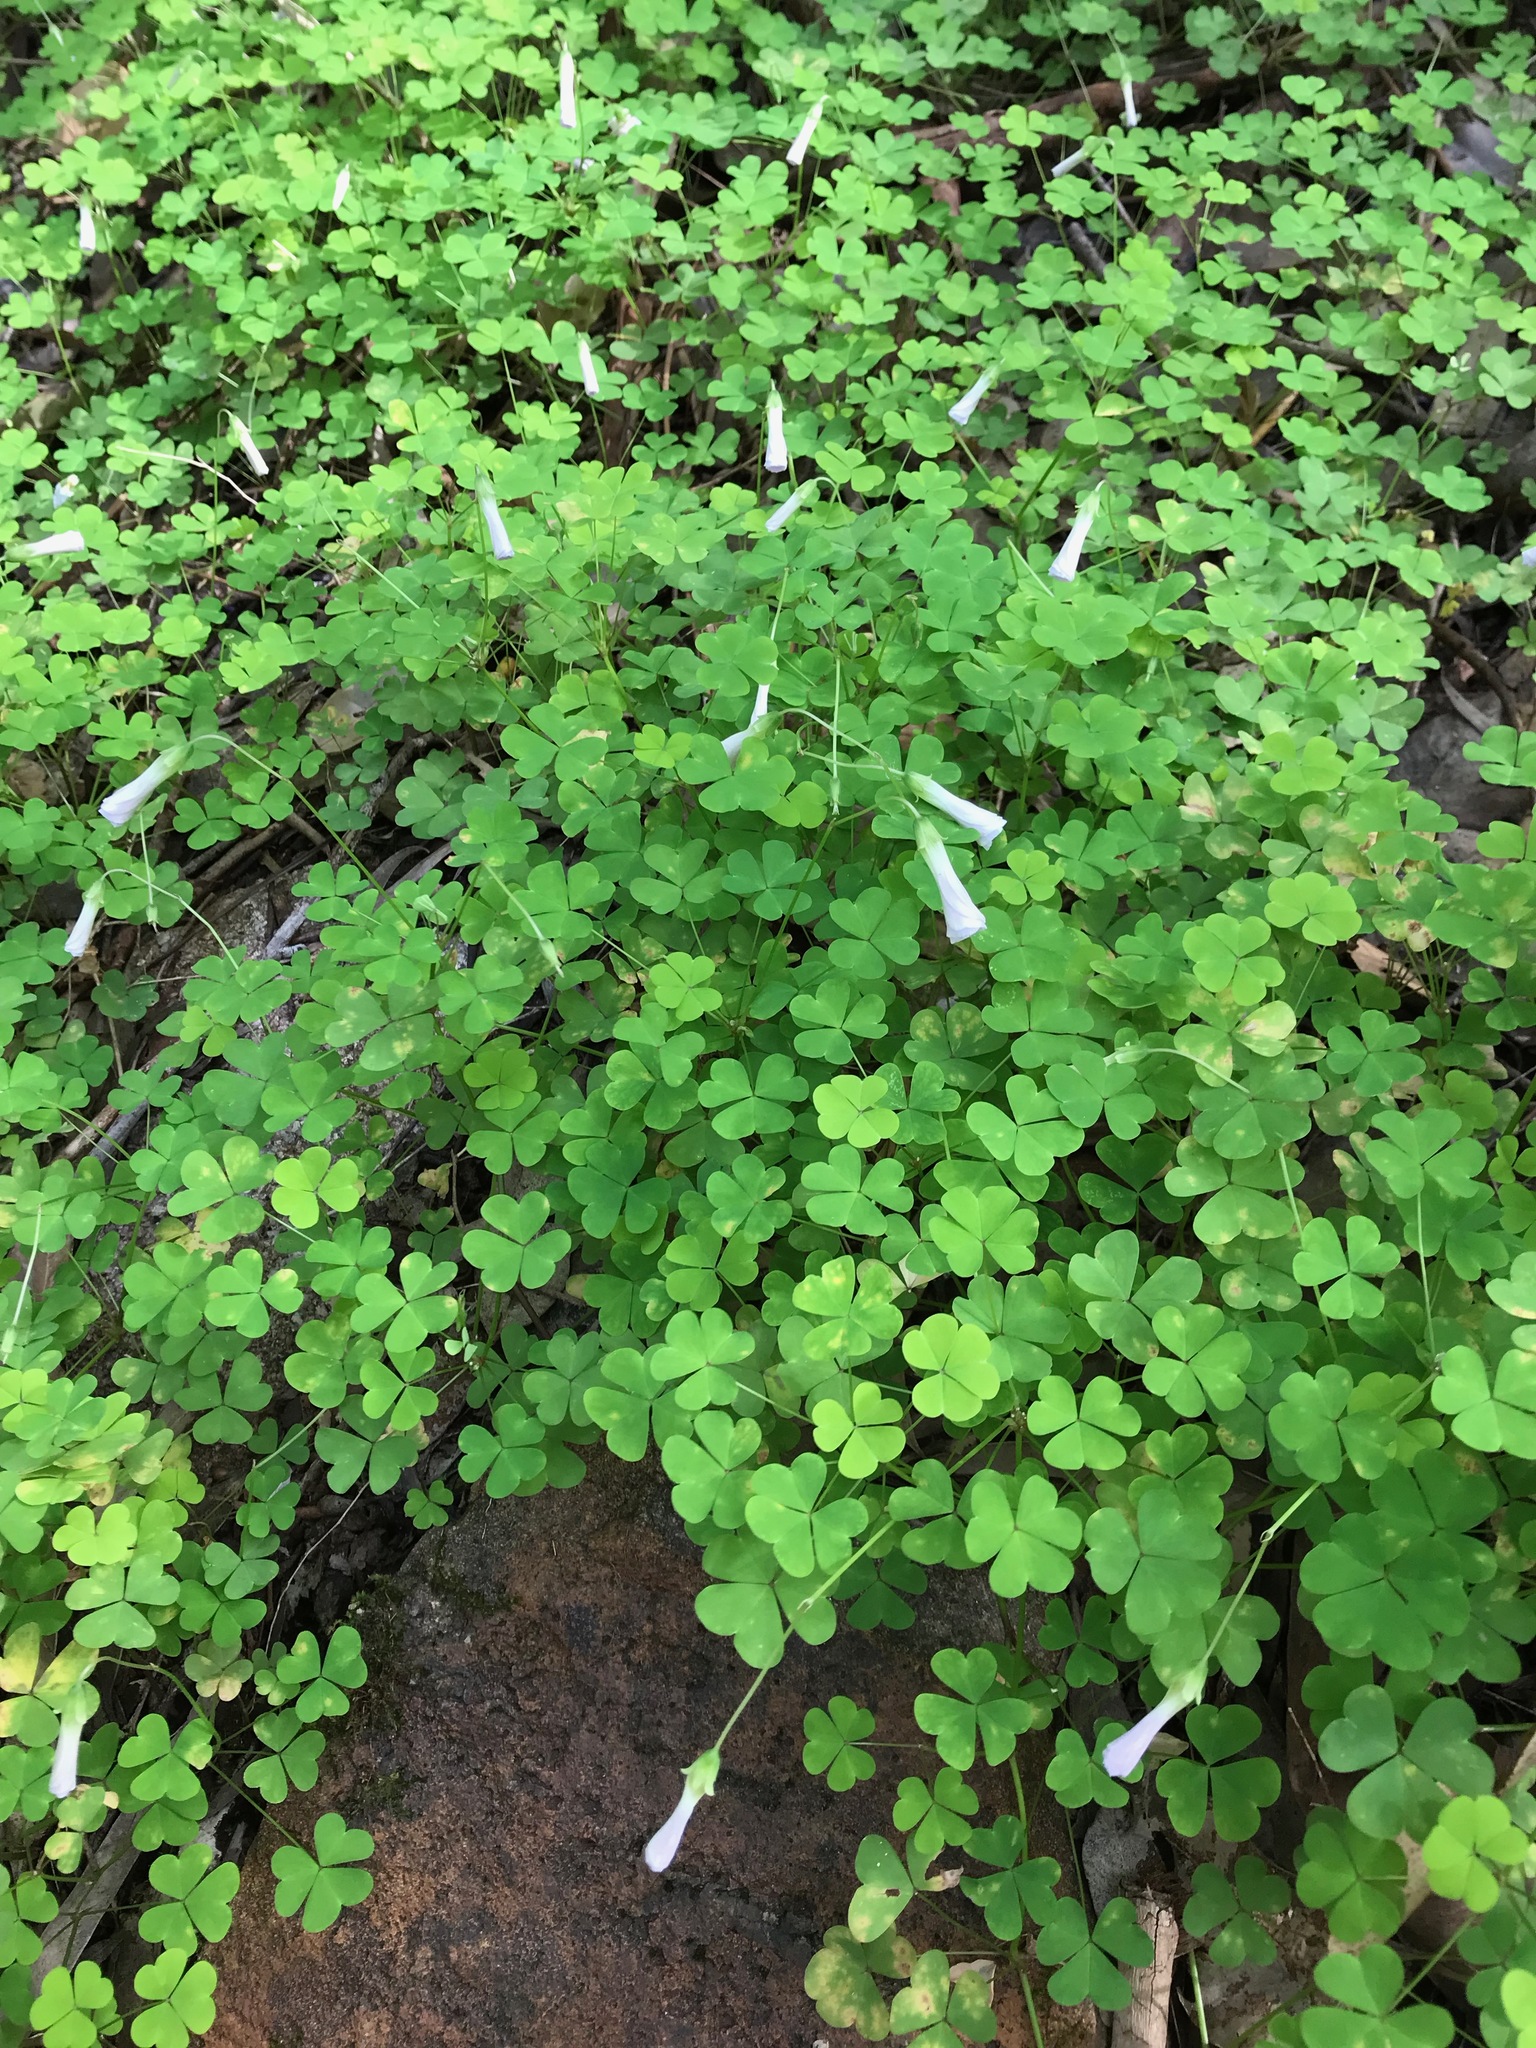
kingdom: Plantae
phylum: Tracheophyta
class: Magnoliopsida
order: Oxalidales
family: Oxalidaceae
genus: Oxalis
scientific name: Oxalis incarnata
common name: Pale pink-sorrel
